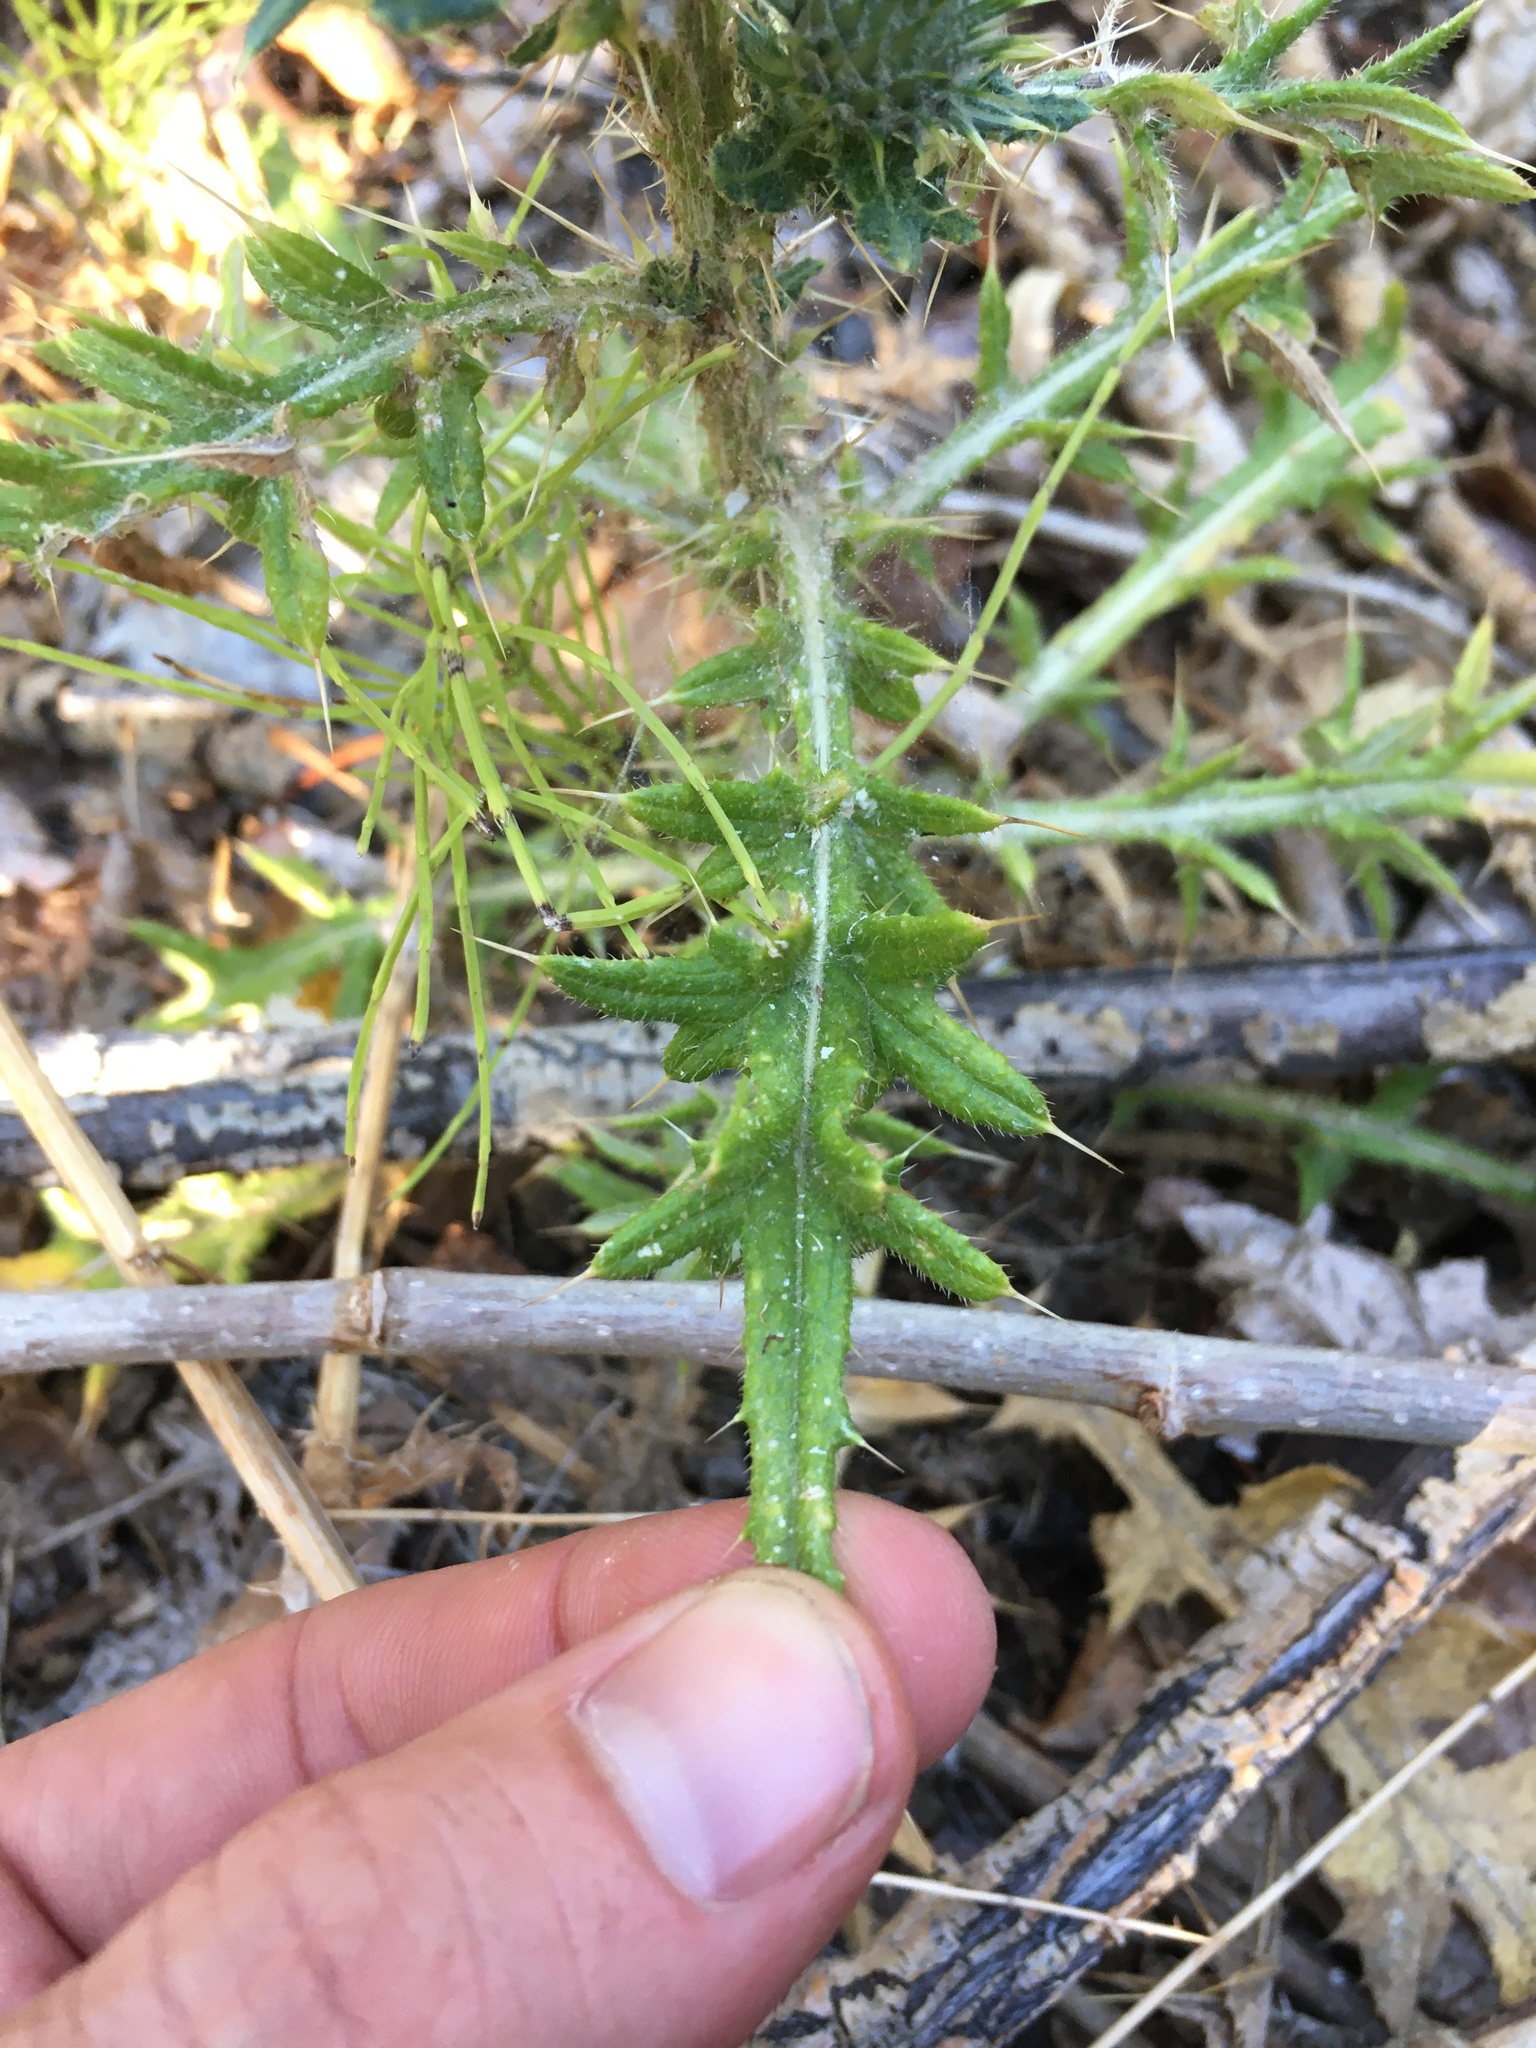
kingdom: Plantae
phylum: Tracheophyta
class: Magnoliopsida
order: Asterales
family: Asteraceae
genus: Cirsium
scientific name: Cirsium vulgare
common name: Bull thistle
